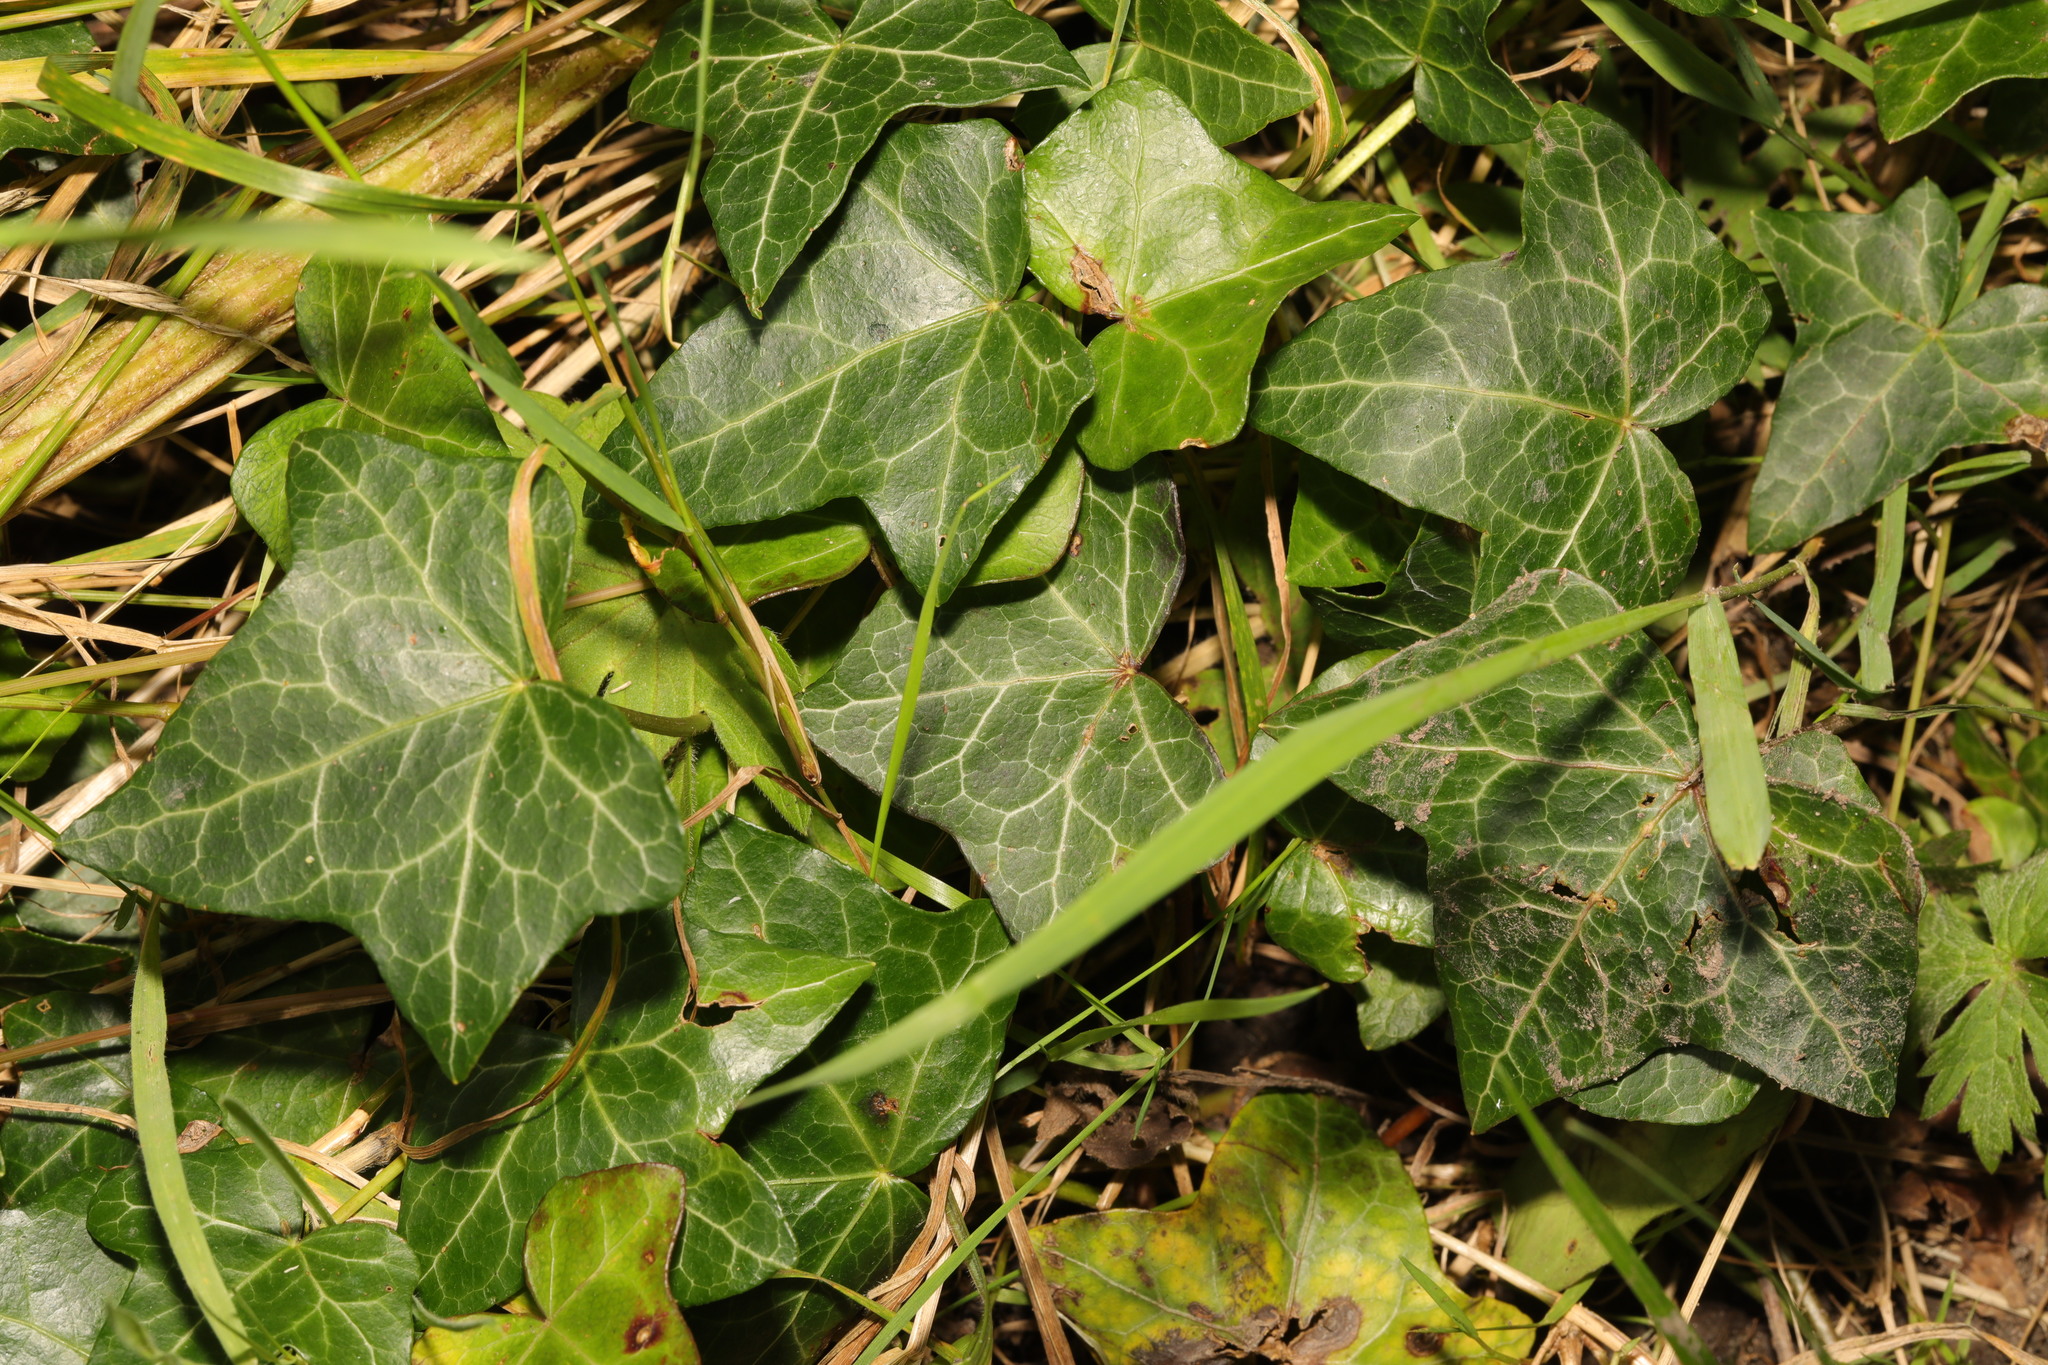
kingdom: Plantae
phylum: Tracheophyta
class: Magnoliopsida
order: Apiales
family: Araliaceae
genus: Hedera
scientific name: Hedera helix
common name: Ivy
